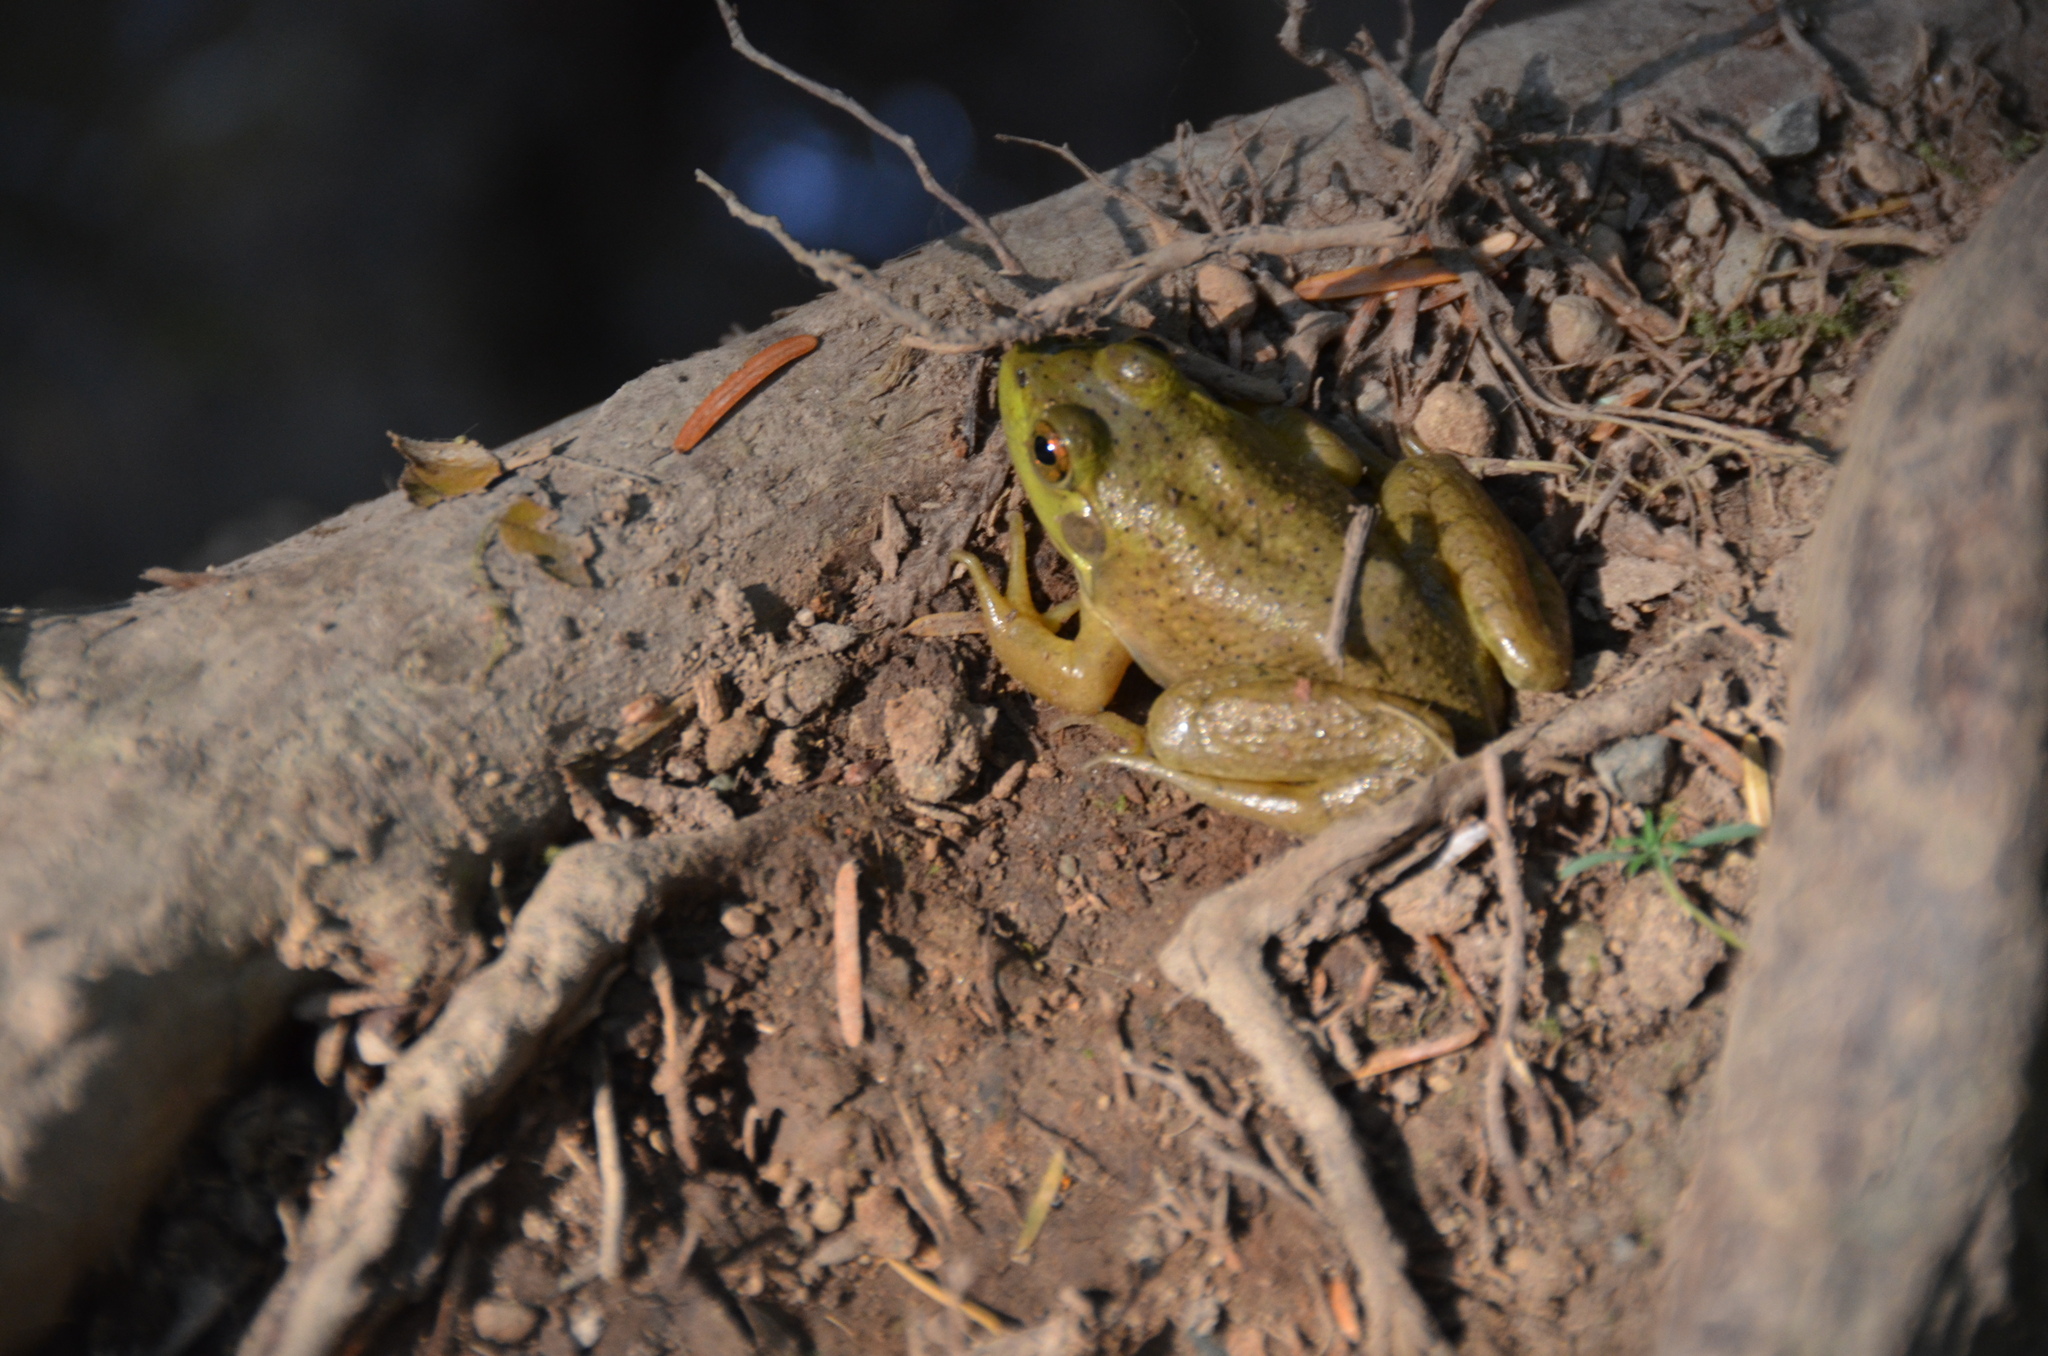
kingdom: Animalia
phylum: Chordata
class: Amphibia
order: Anura
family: Ranidae
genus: Lithobates
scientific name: Lithobates catesbeianus
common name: American bullfrog
